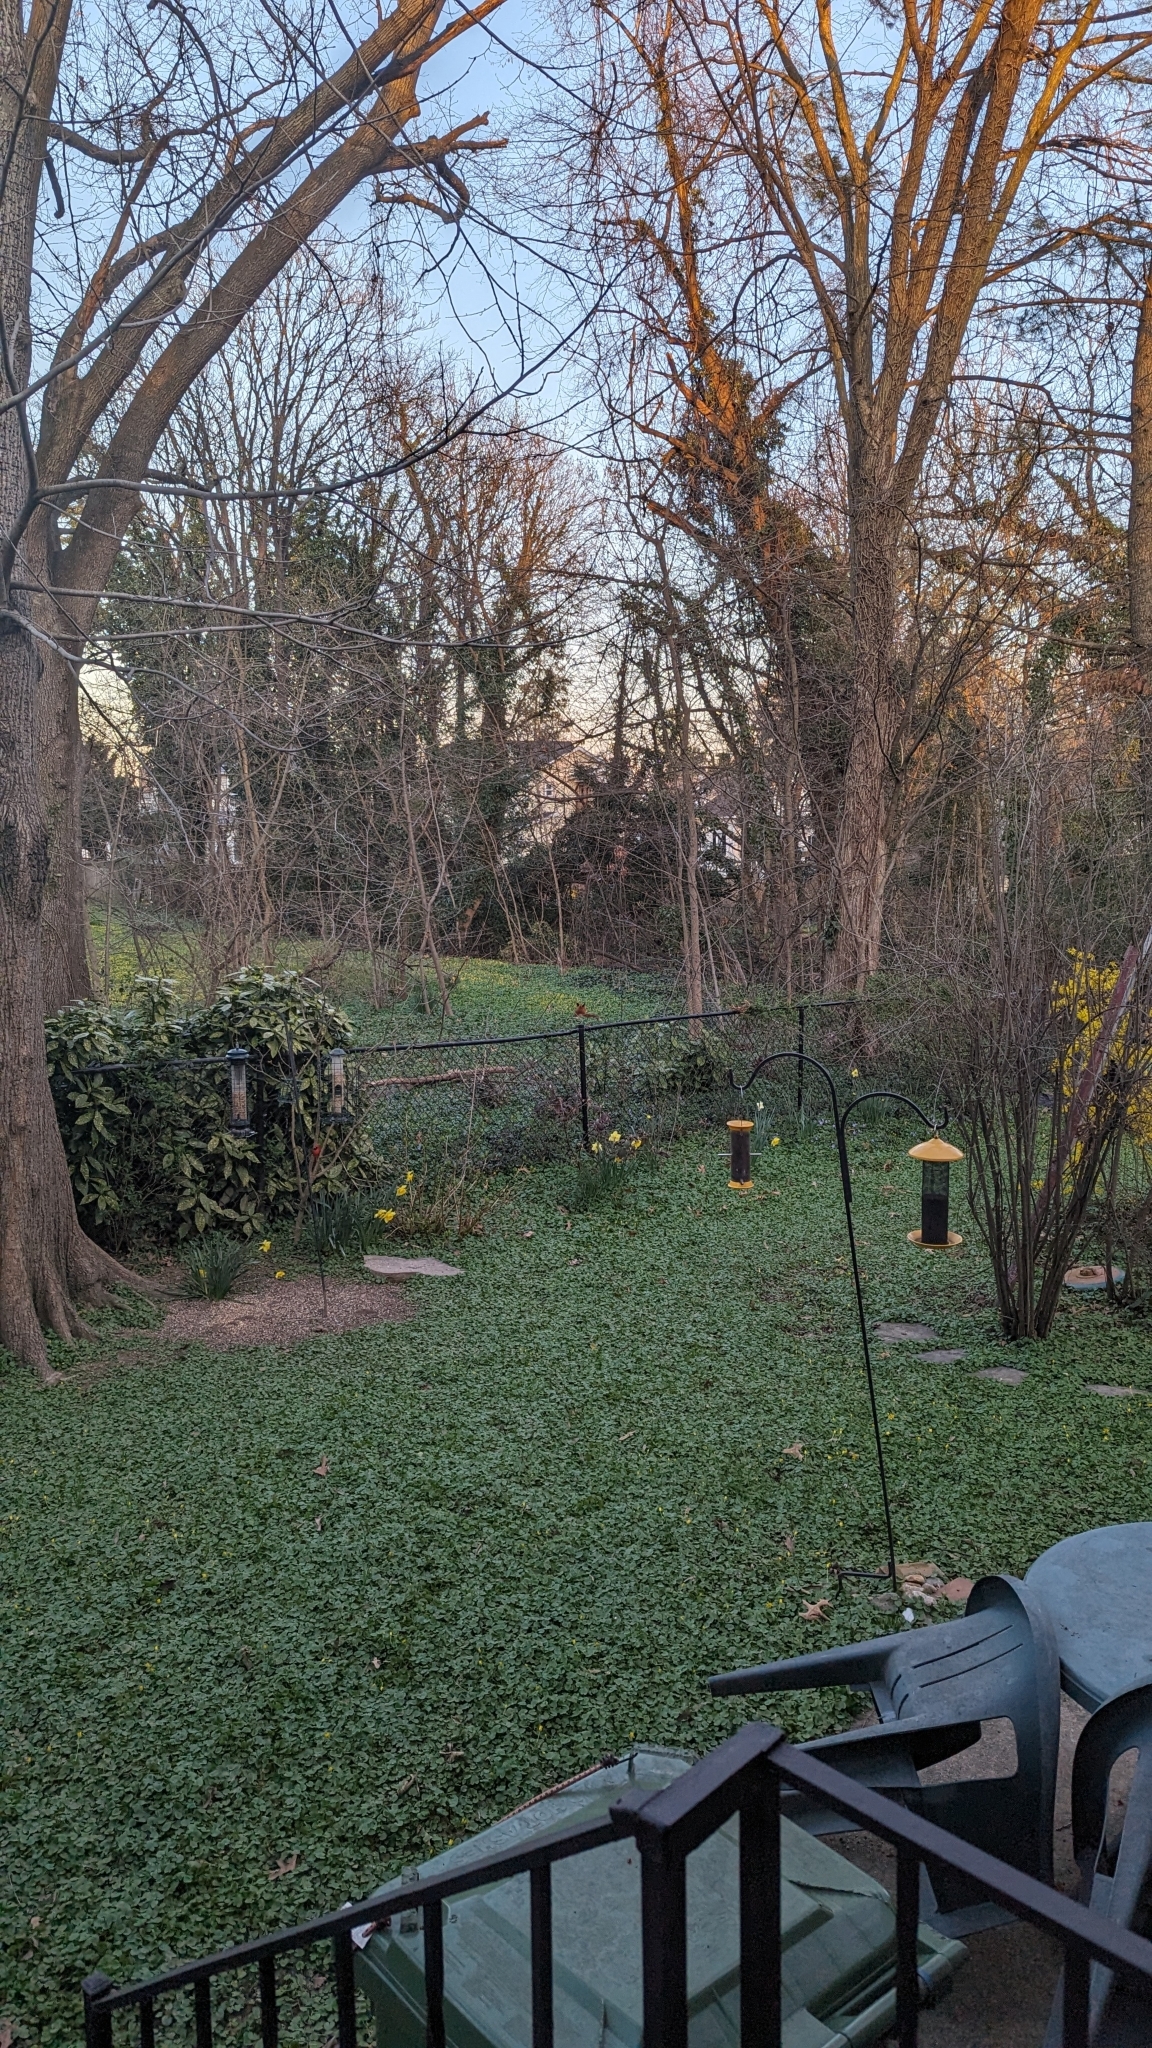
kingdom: Animalia
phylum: Chordata
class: Mammalia
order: Carnivora
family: Canidae
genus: Vulpes
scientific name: Vulpes vulpes
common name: Red fox
